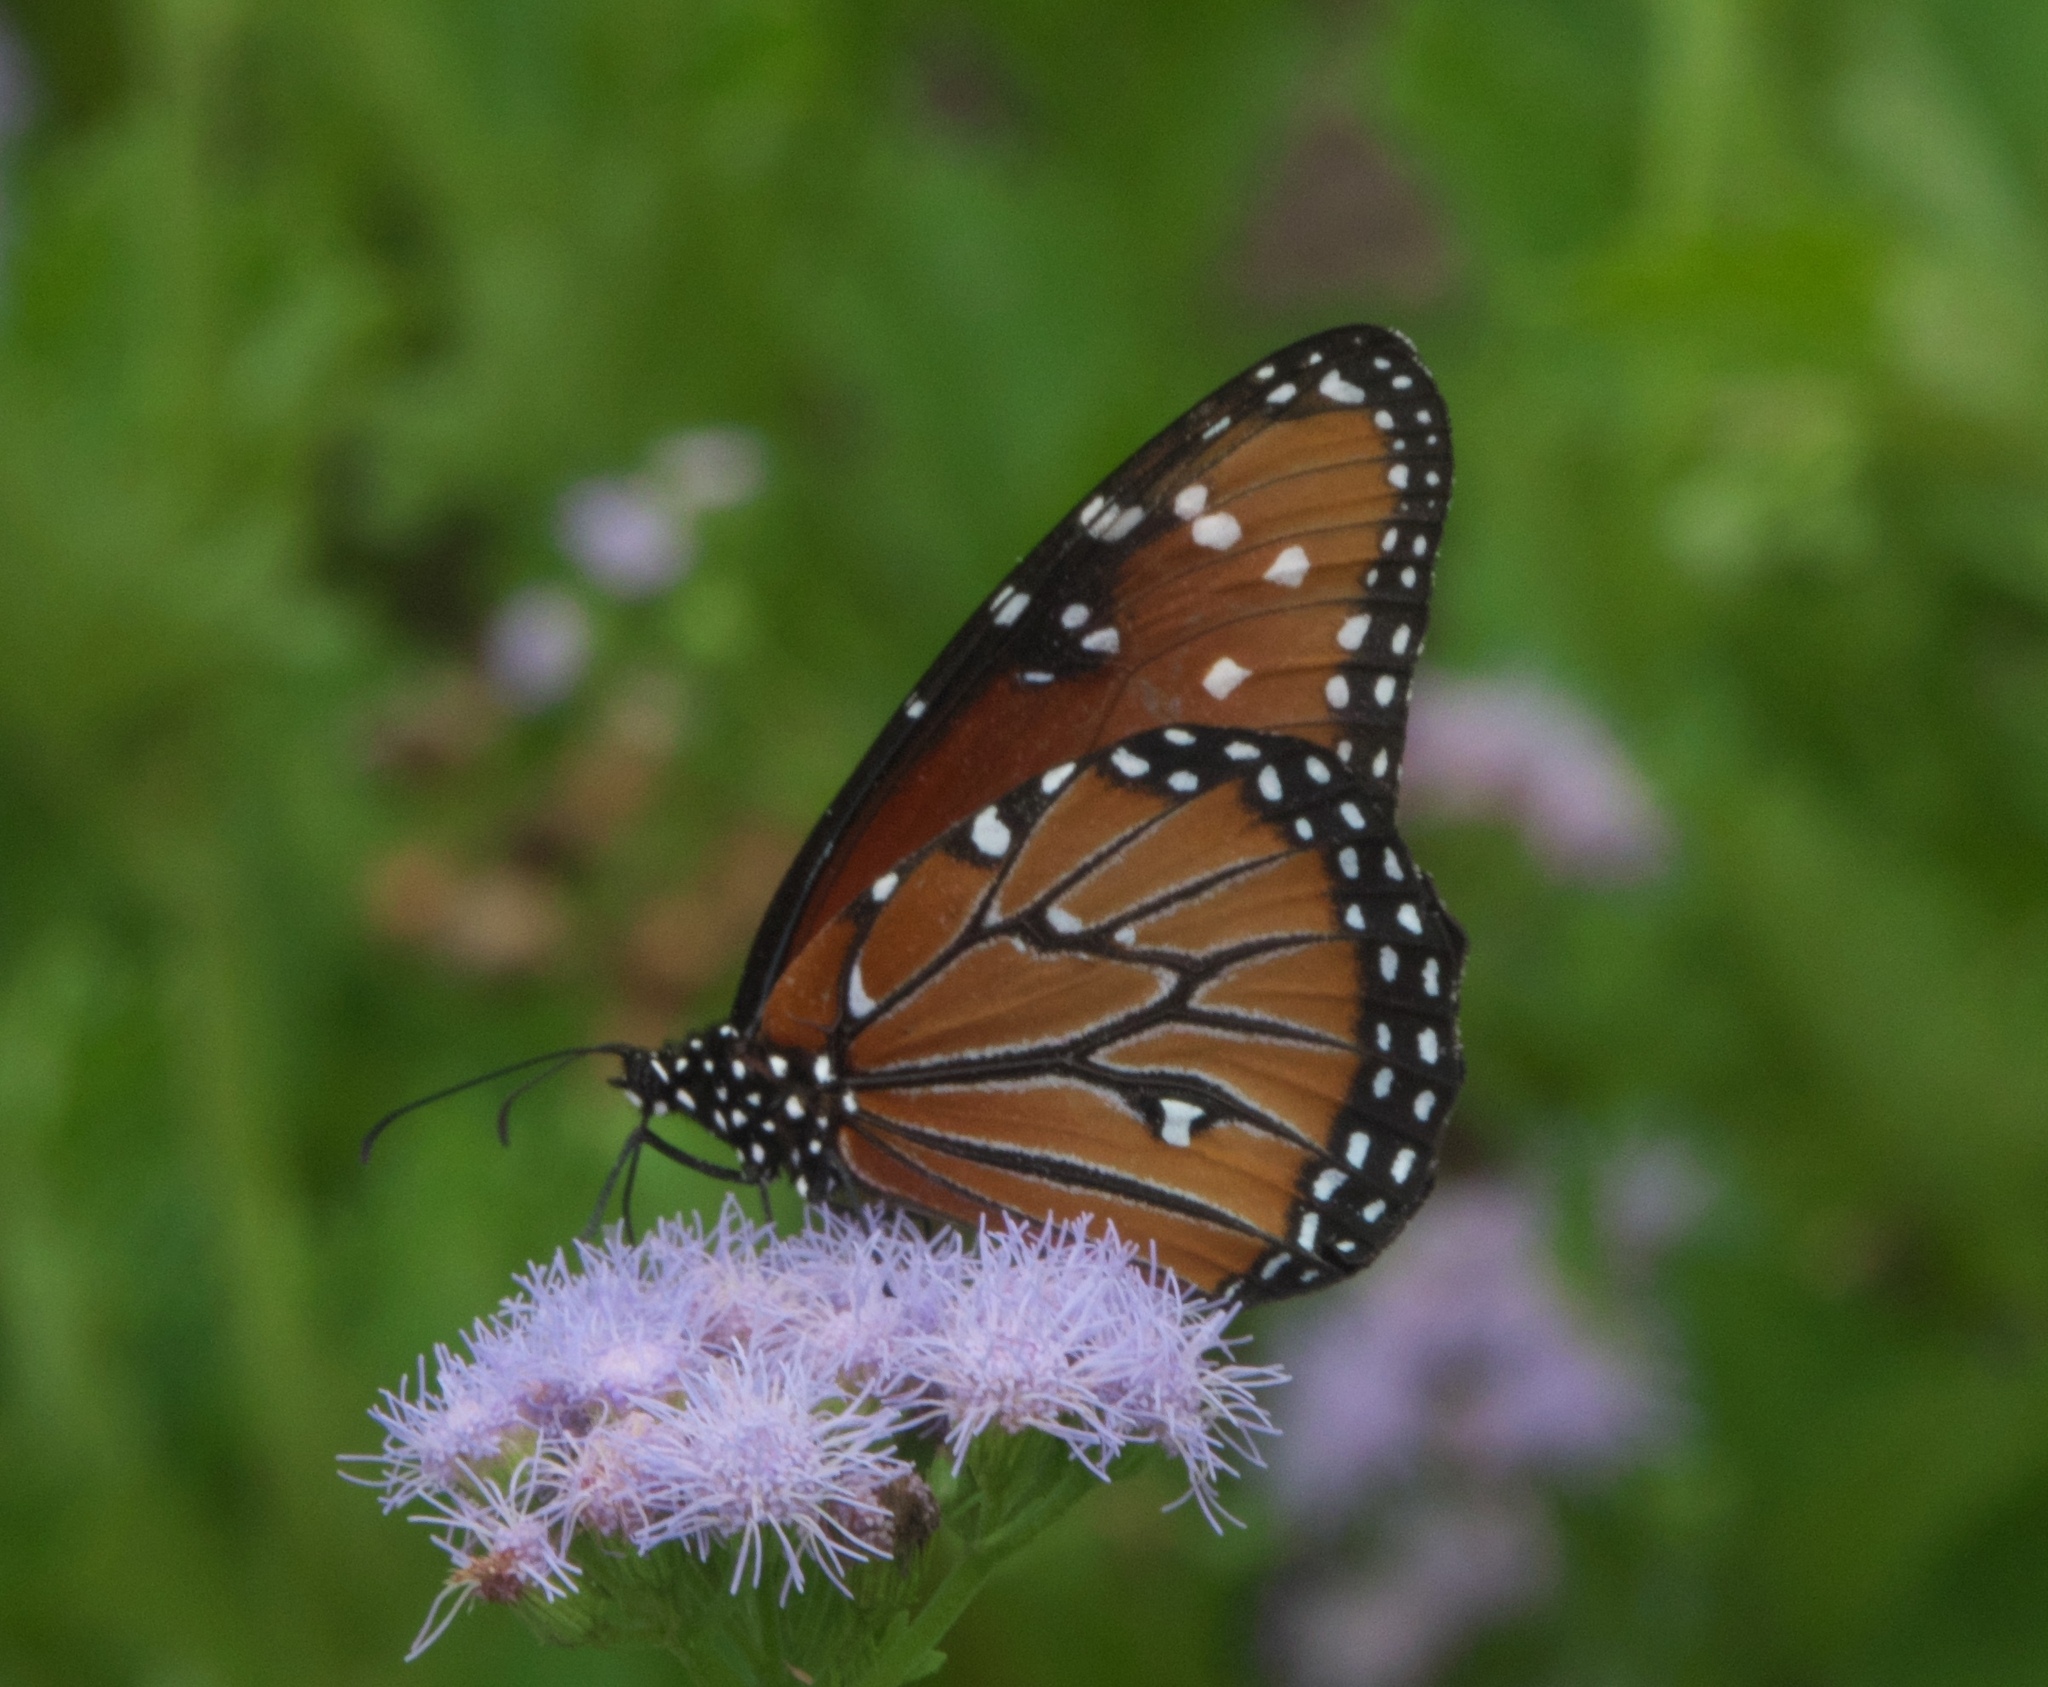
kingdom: Animalia
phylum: Arthropoda
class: Insecta
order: Lepidoptera
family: Nymphalidae
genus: Danaus
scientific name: Danaus gilippus
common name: Queen
